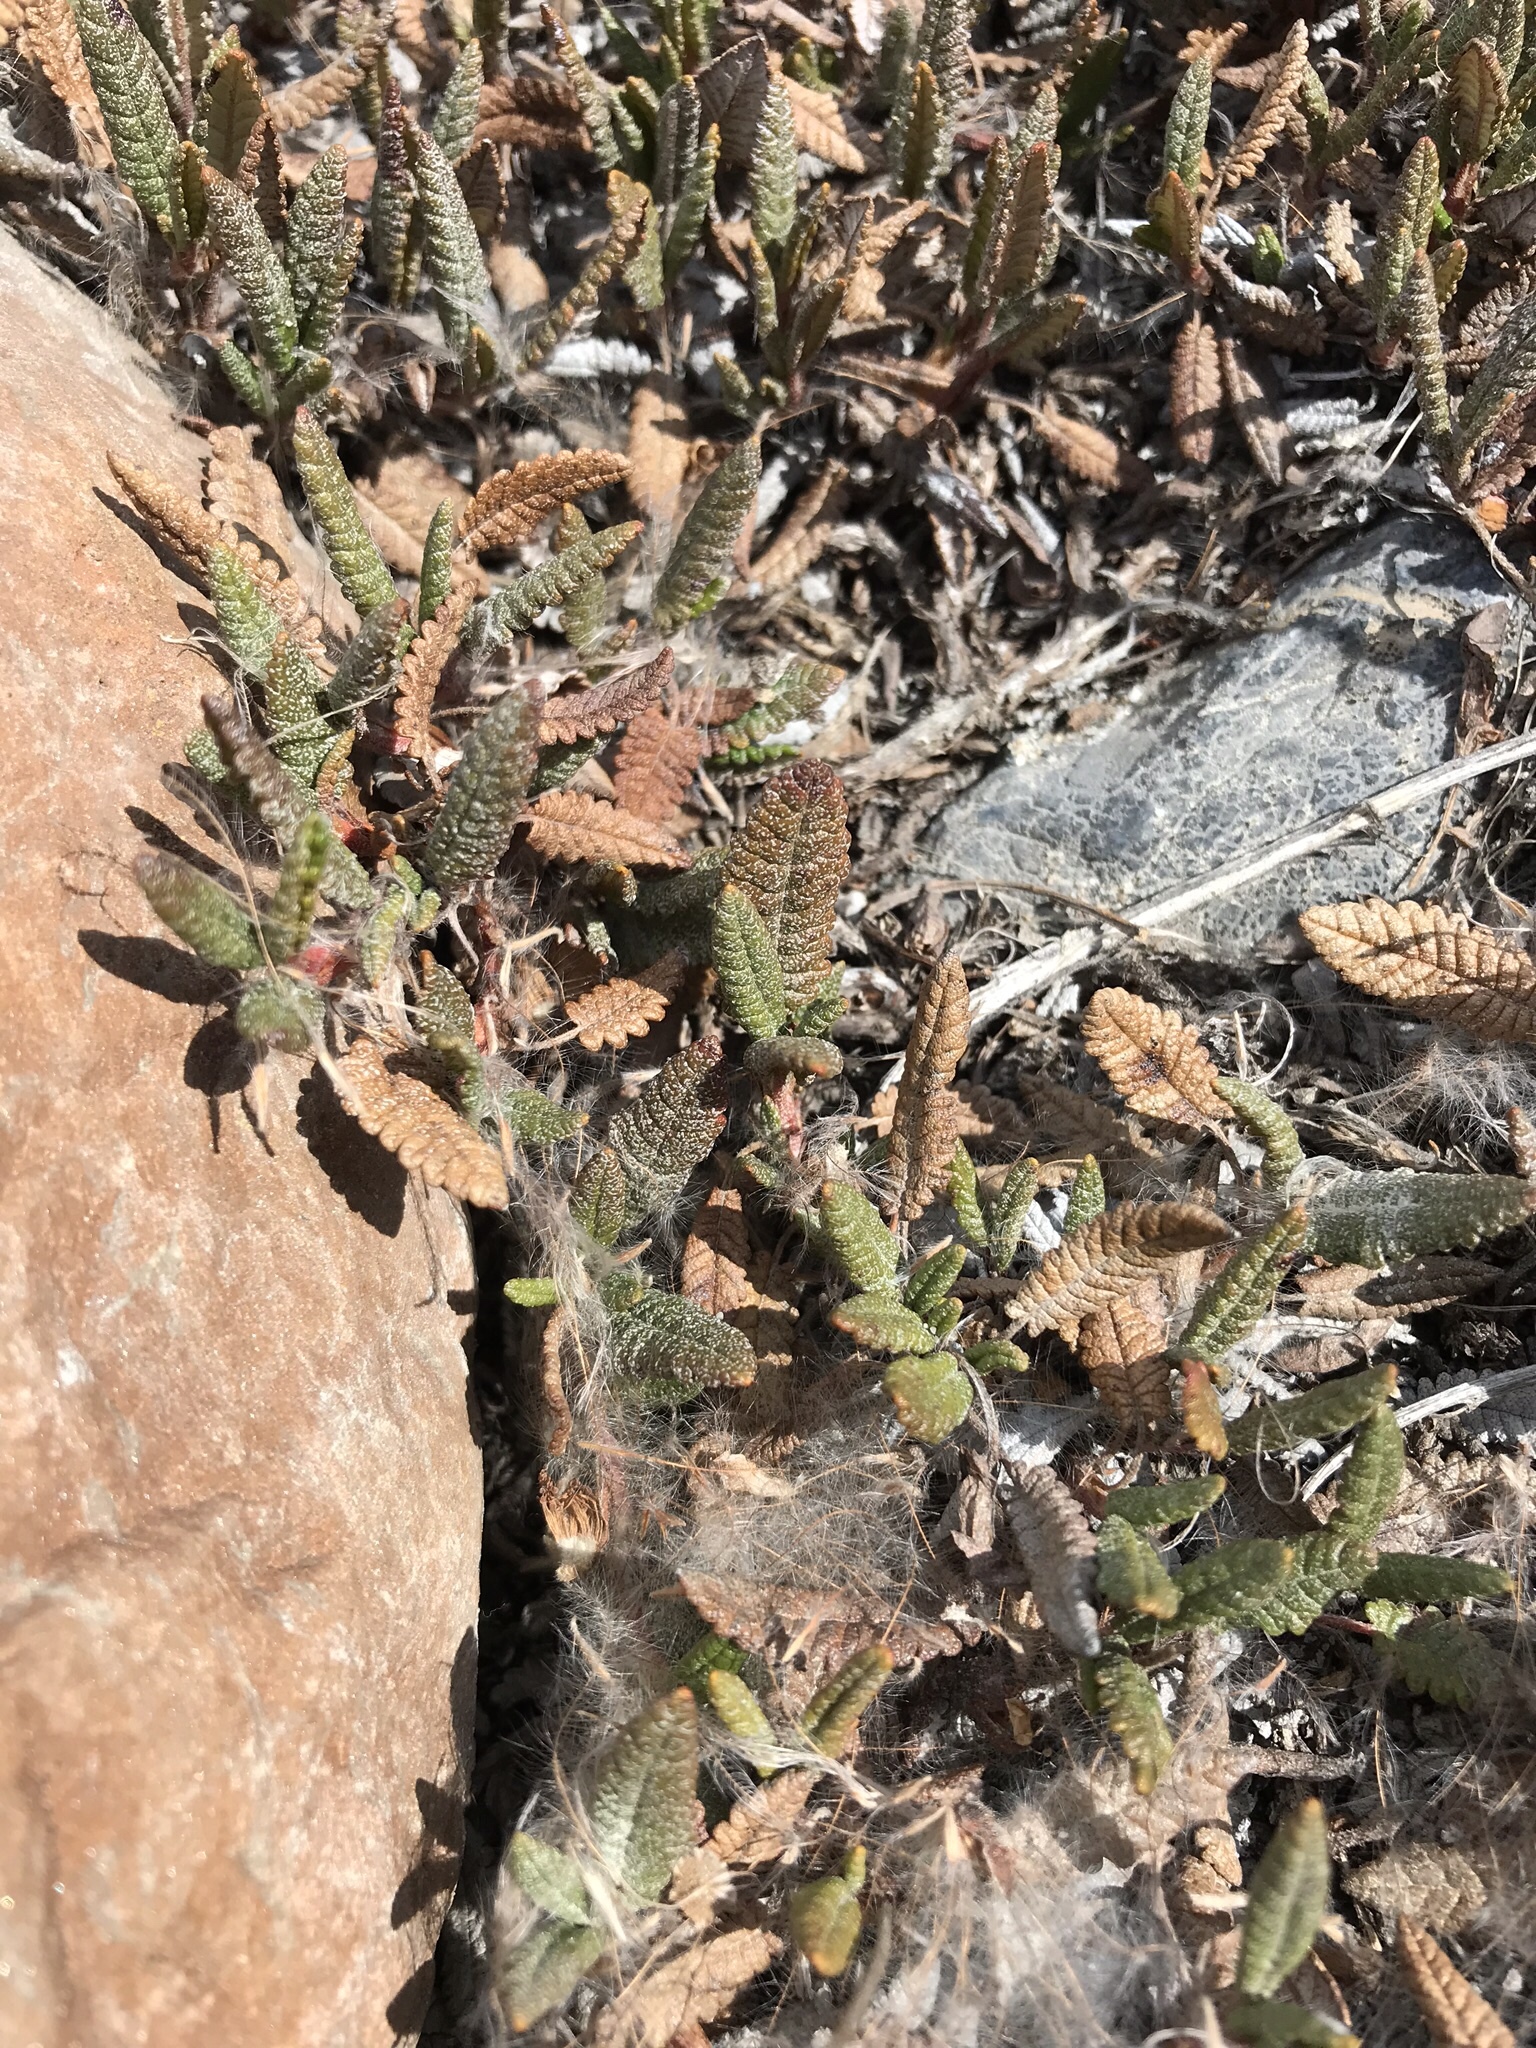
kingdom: Plantae
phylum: Tracheophyta
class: Magnoliopsida
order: Rosales
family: Rosaceae
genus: Dryas
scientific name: Dryas octopetala
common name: Eight-petal mountain-avens
